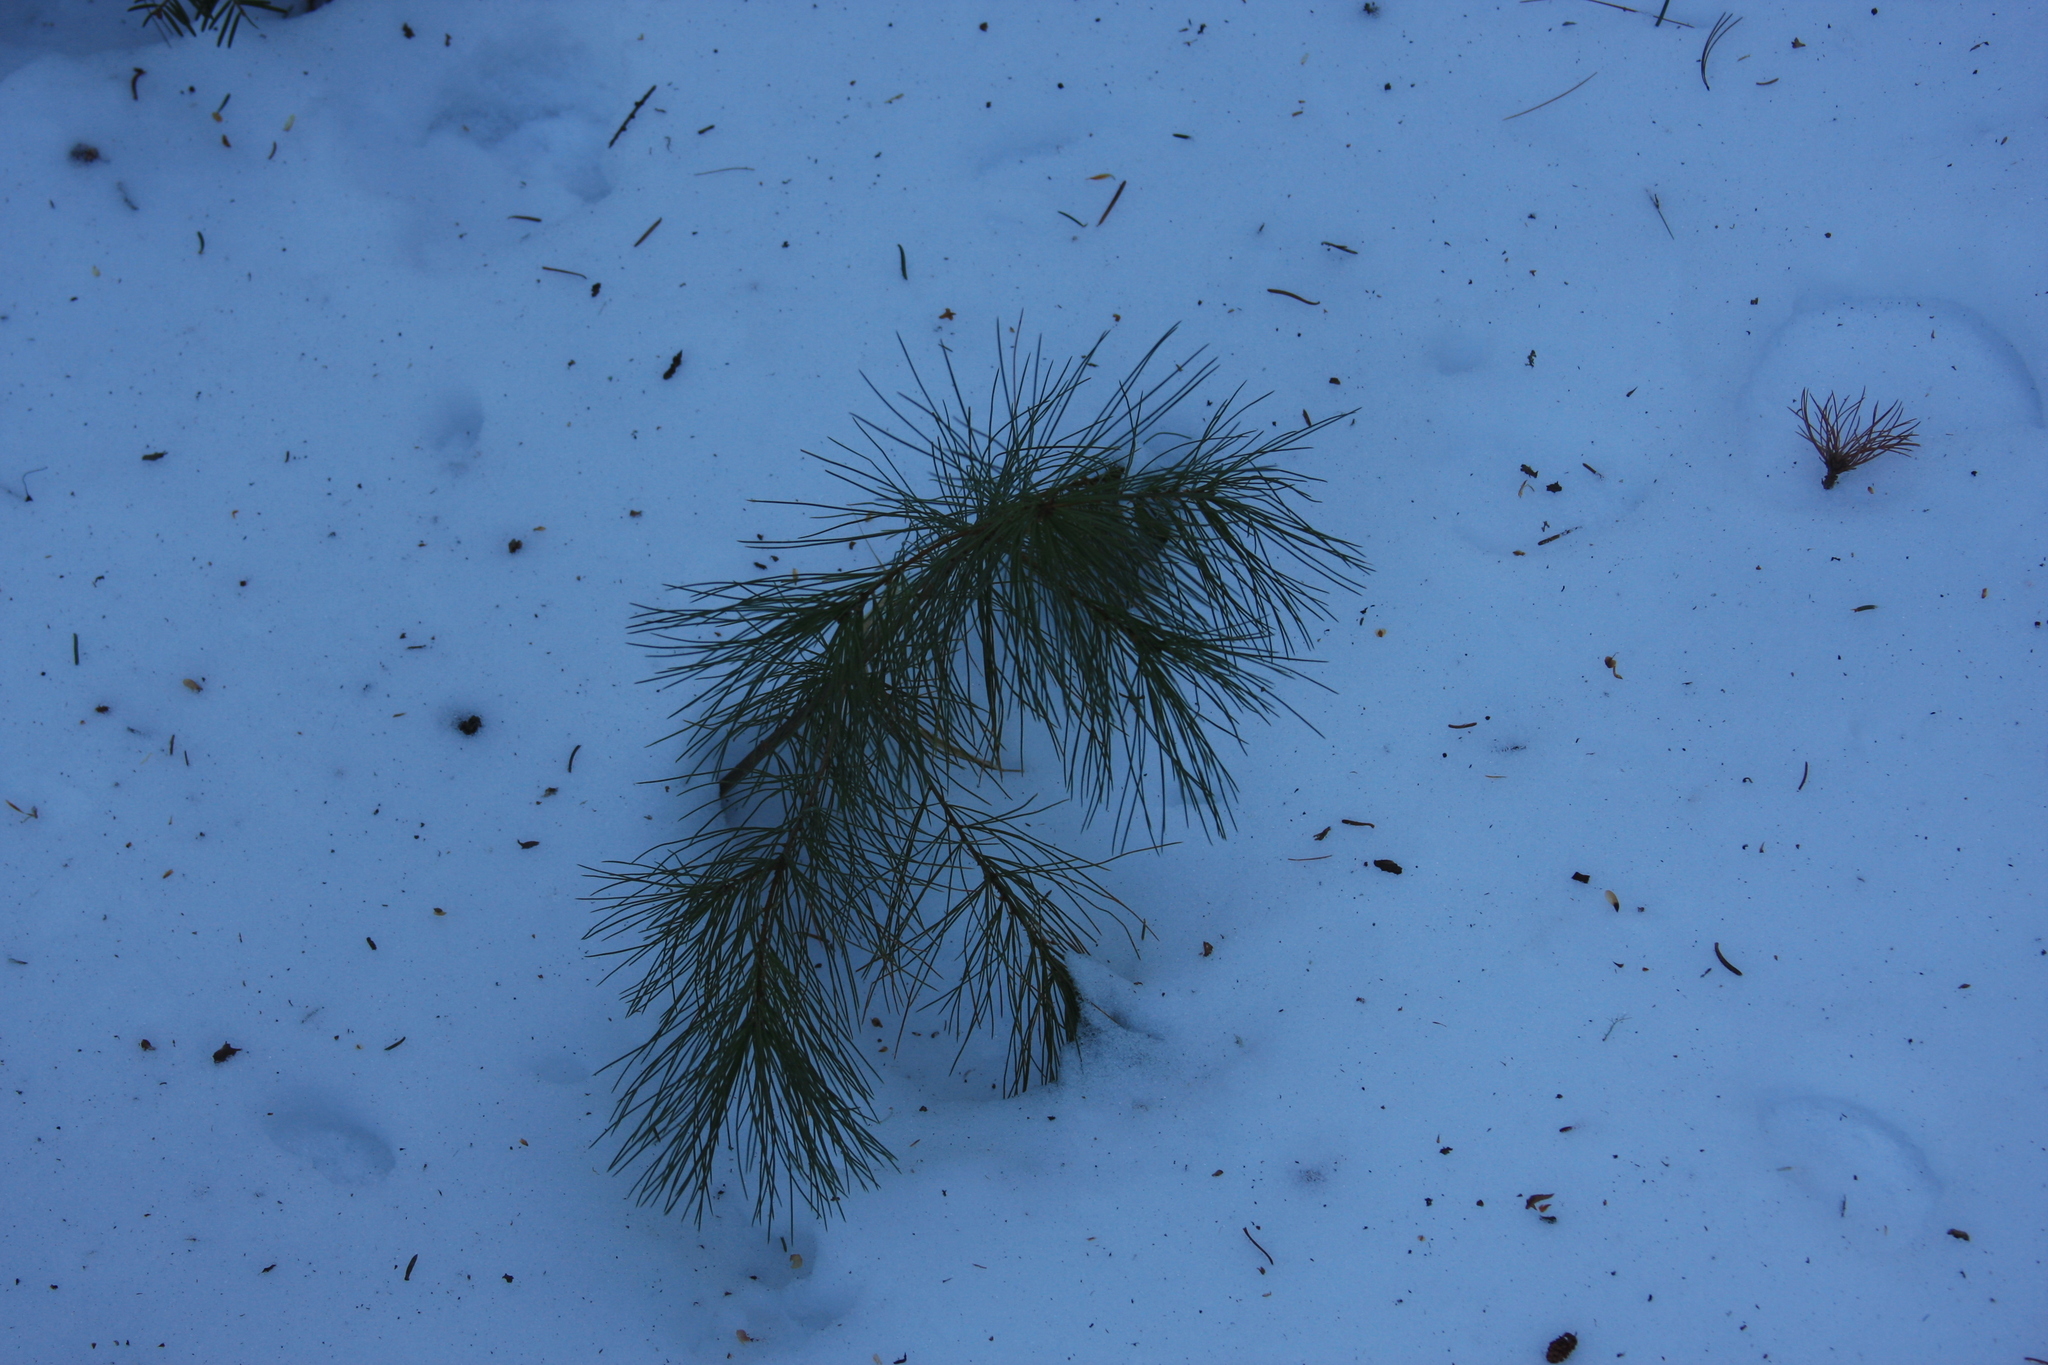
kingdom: Plantae
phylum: Tracheophyta
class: Pinopsida
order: Pinales
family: Pinaceae
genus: Pinus
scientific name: Pinus strobus
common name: Weymouth pine
